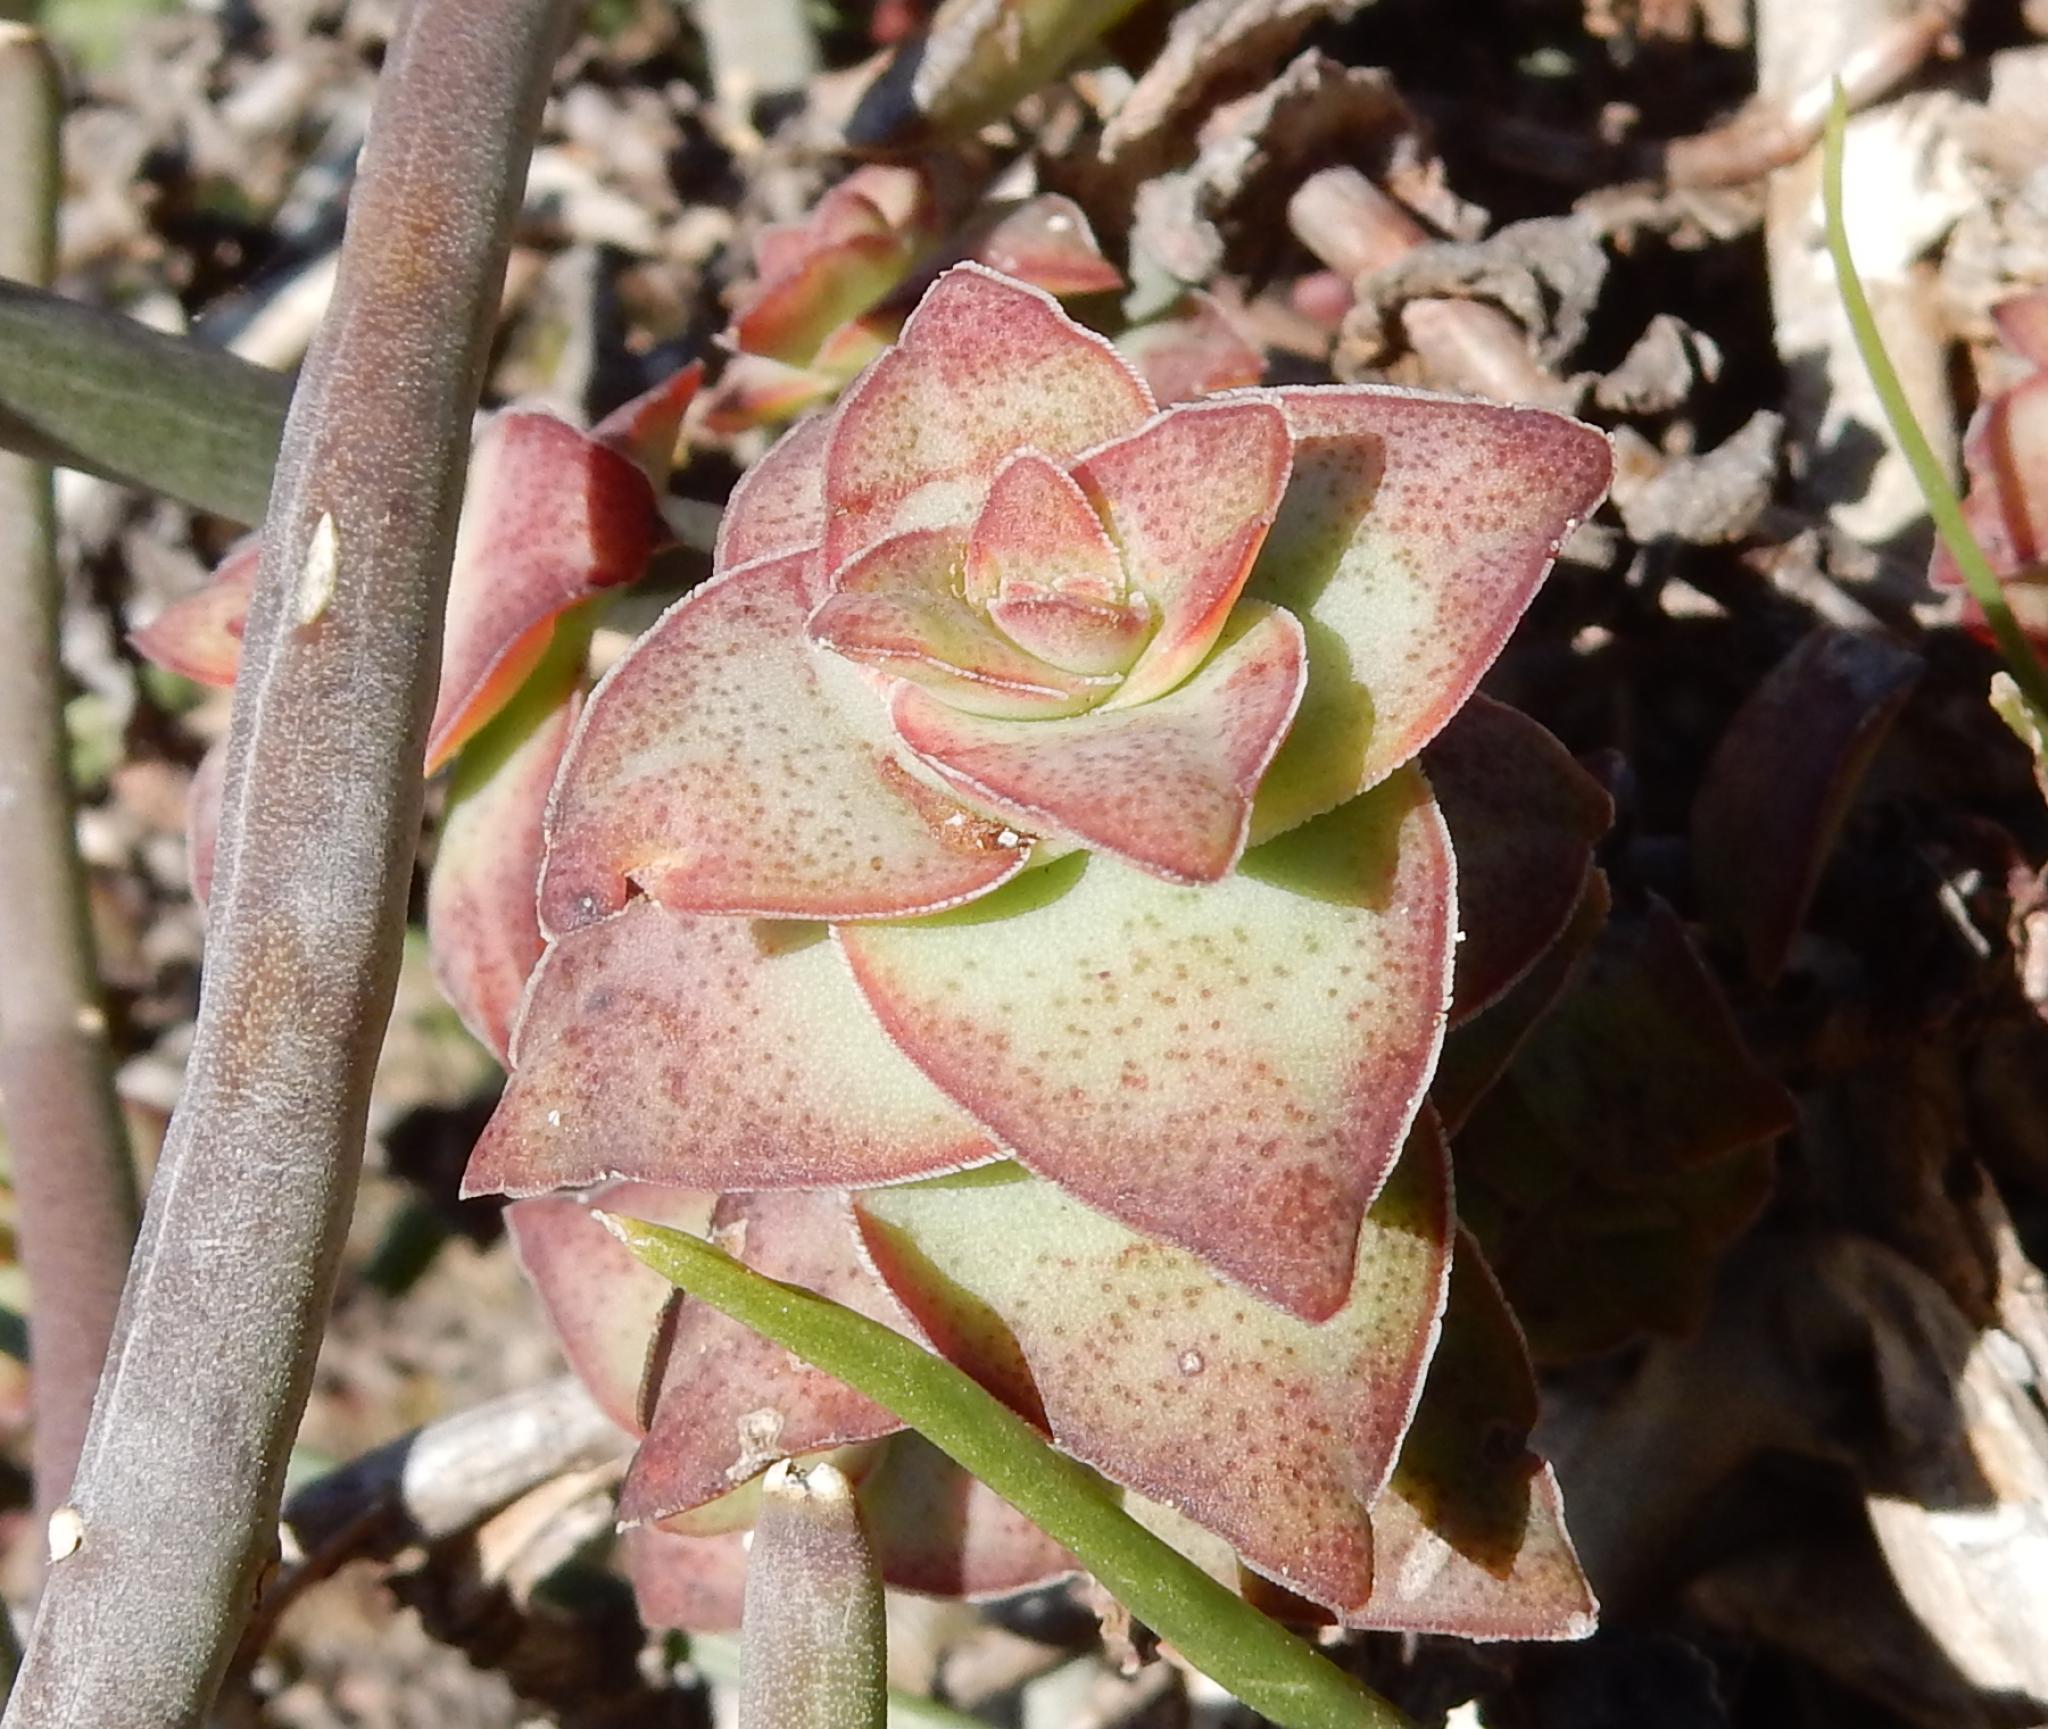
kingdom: Plantae
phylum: Tracheophyta
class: Magnoliopsida
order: Saxifragales
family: Crassulaceae
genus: Crassula
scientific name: Crassula perforata
